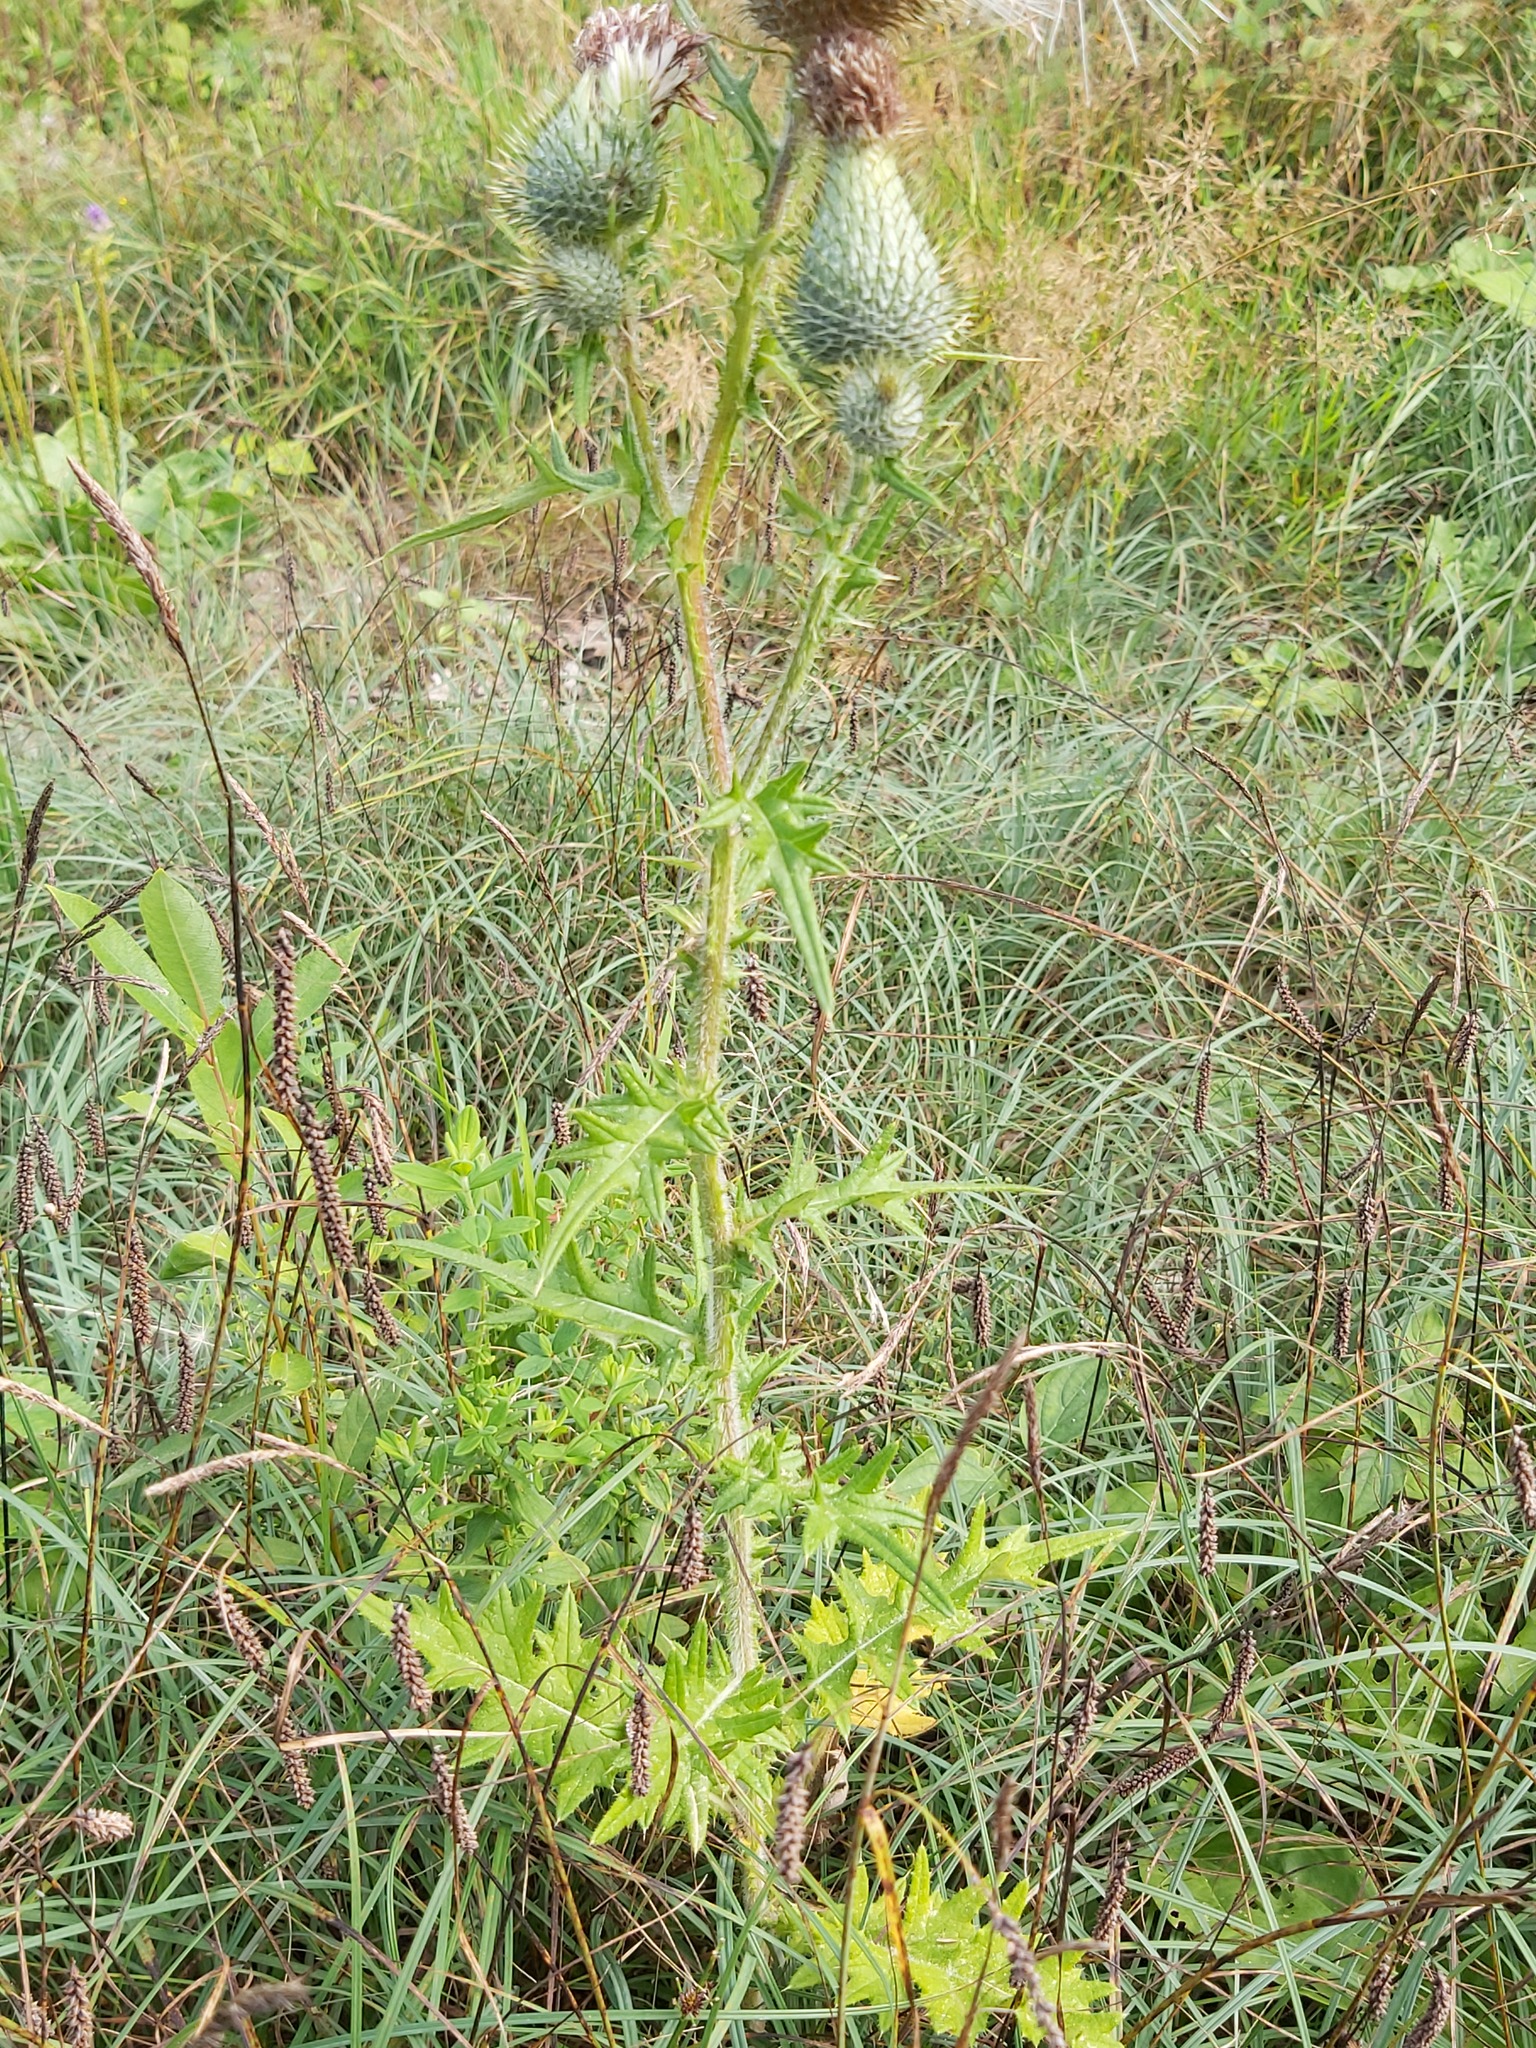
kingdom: Plantae
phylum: Tracheophyta
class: Magnoliopsida
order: Asterales
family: Asteraceae
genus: Cirsium
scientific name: Cirsium vulgare
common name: Bull thistle
